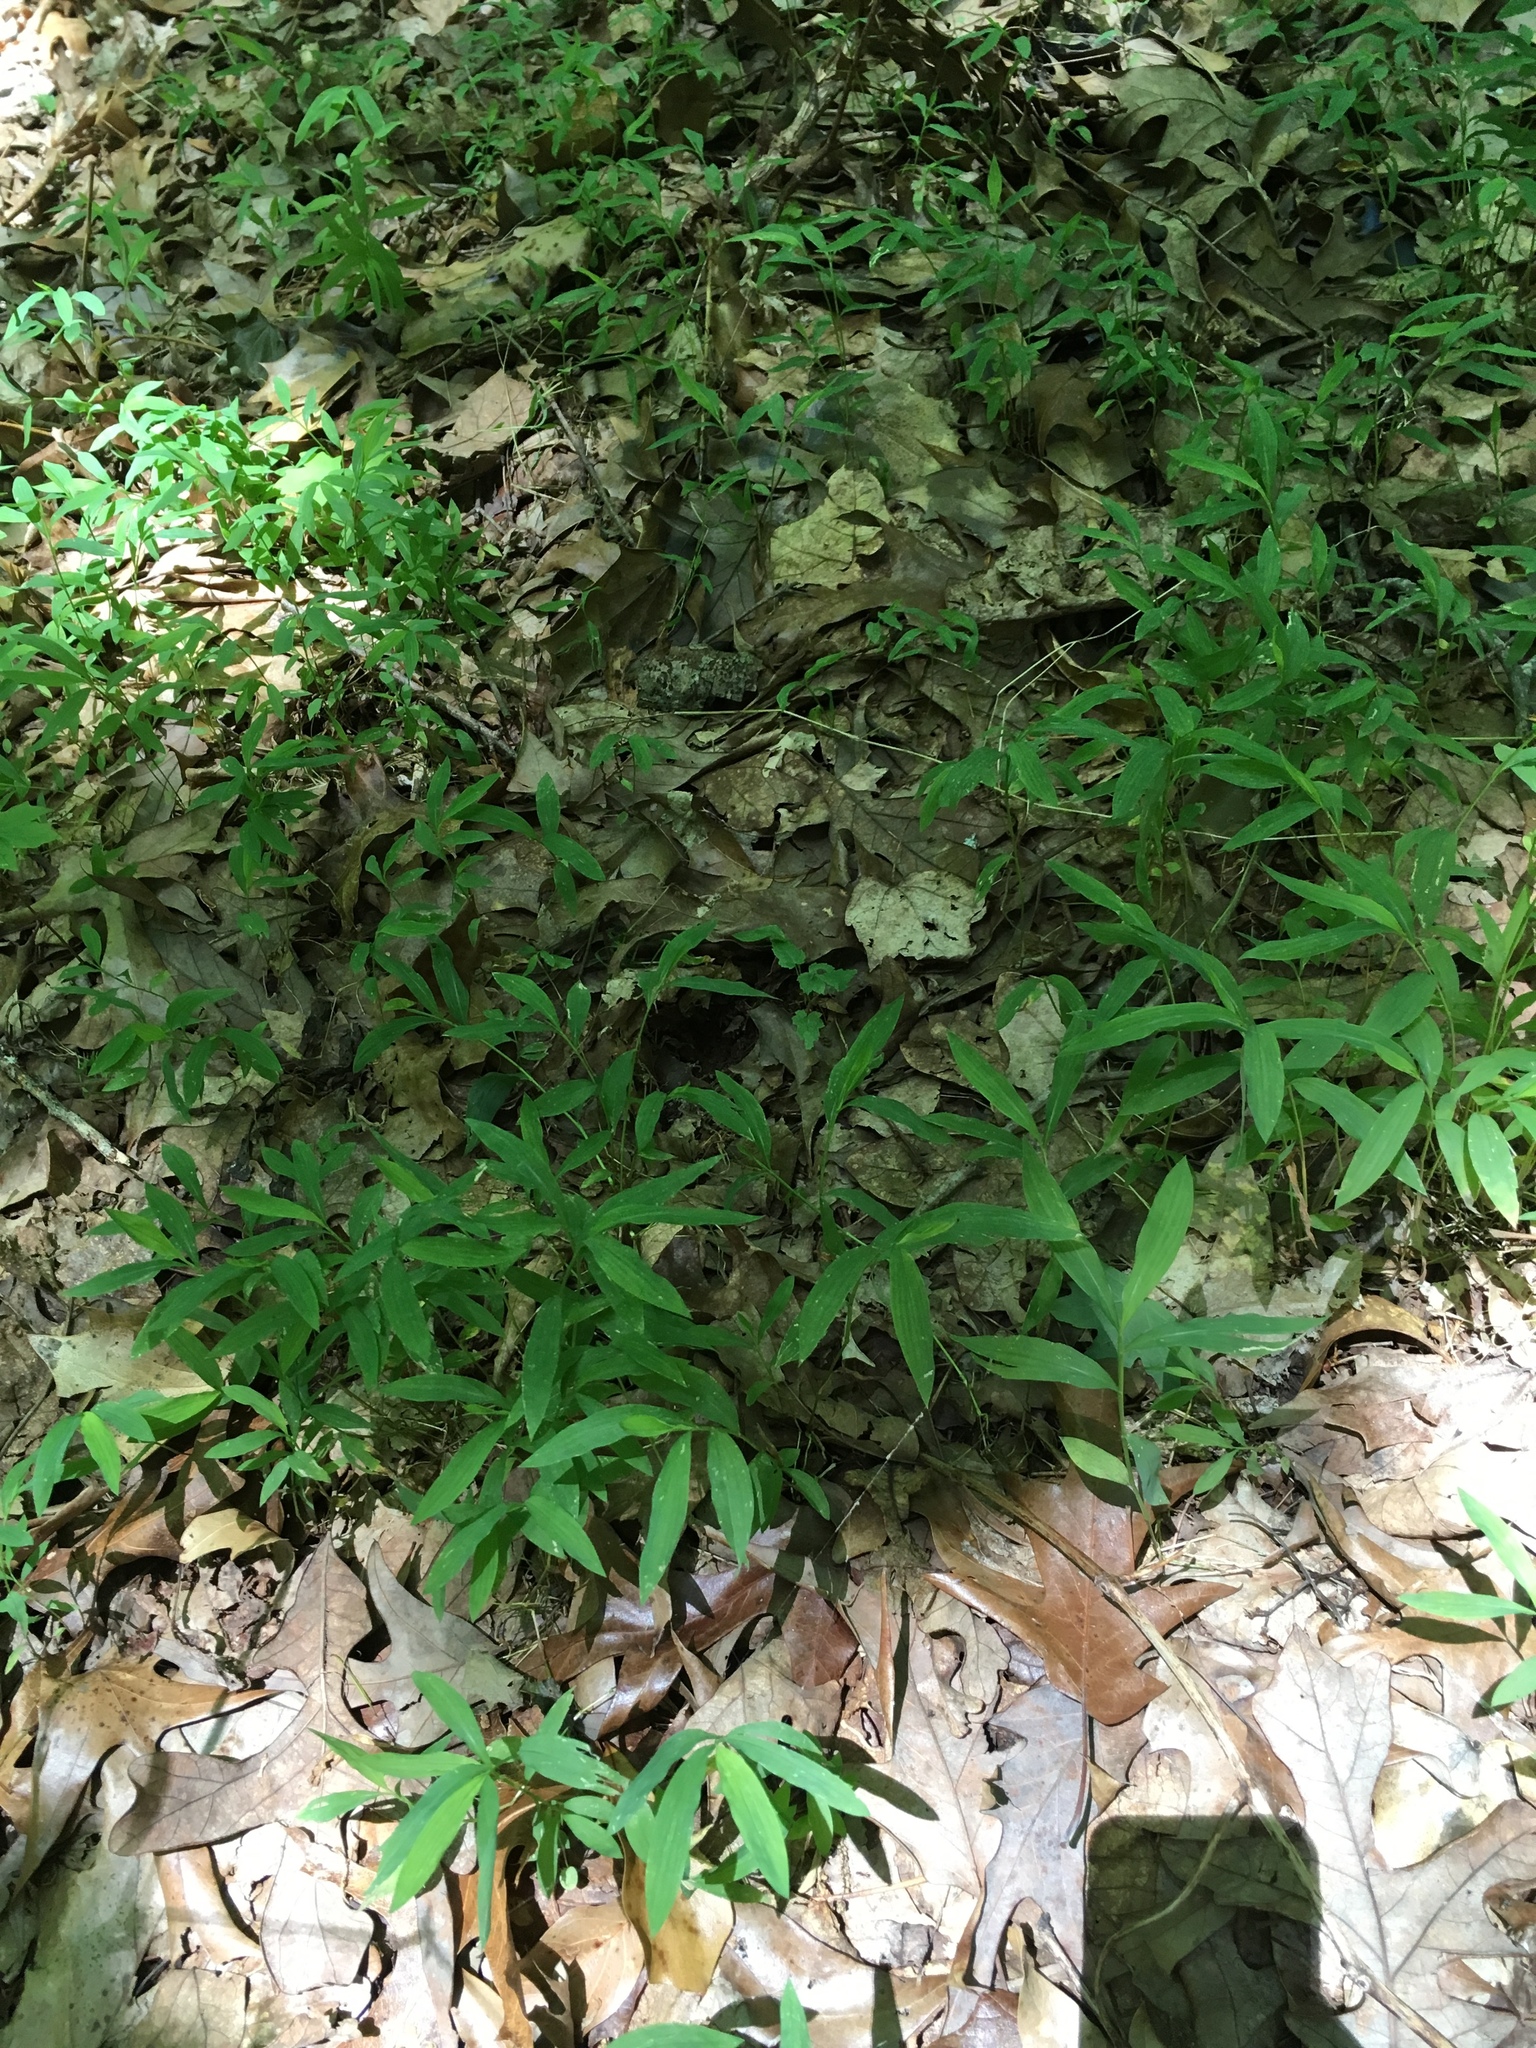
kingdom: Plantae
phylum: Tracheophyta
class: Liliopsida
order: Poales
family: Poaceae
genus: Microstegium
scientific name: Microstegium vimineum
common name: Japanese stiltgrass
